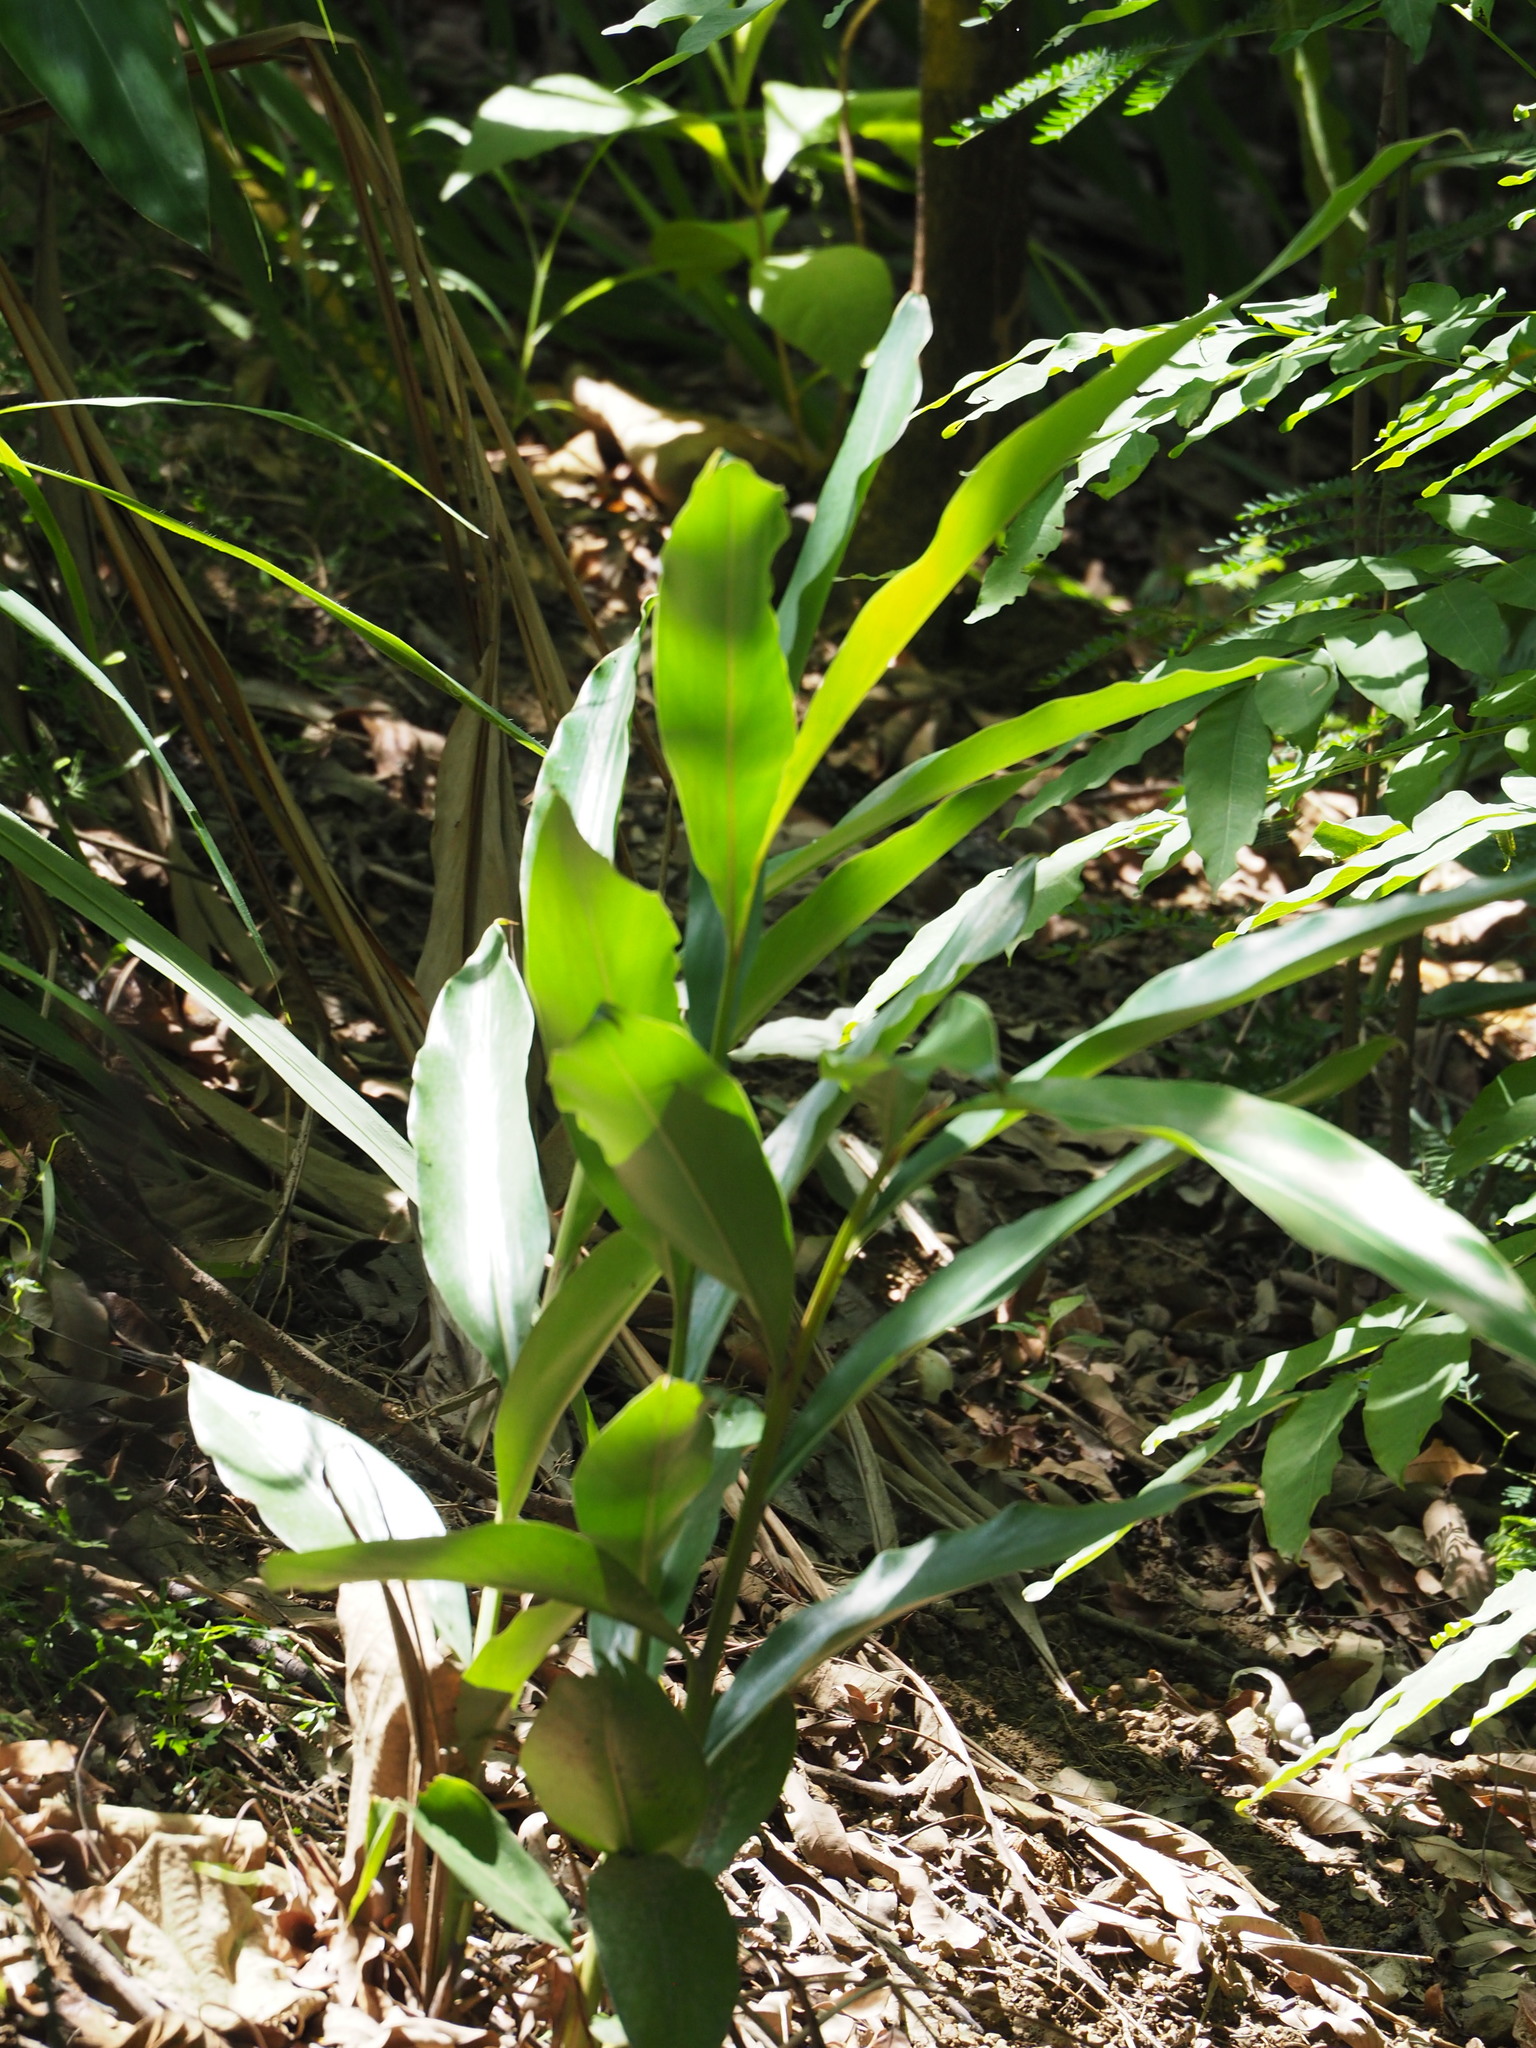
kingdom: Plantae
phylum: Tracheophyta
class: Liliopsida
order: Zingiberales
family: Zingiberaceae
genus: Alpinia
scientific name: Alpinia zerumbet
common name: Shellplant
